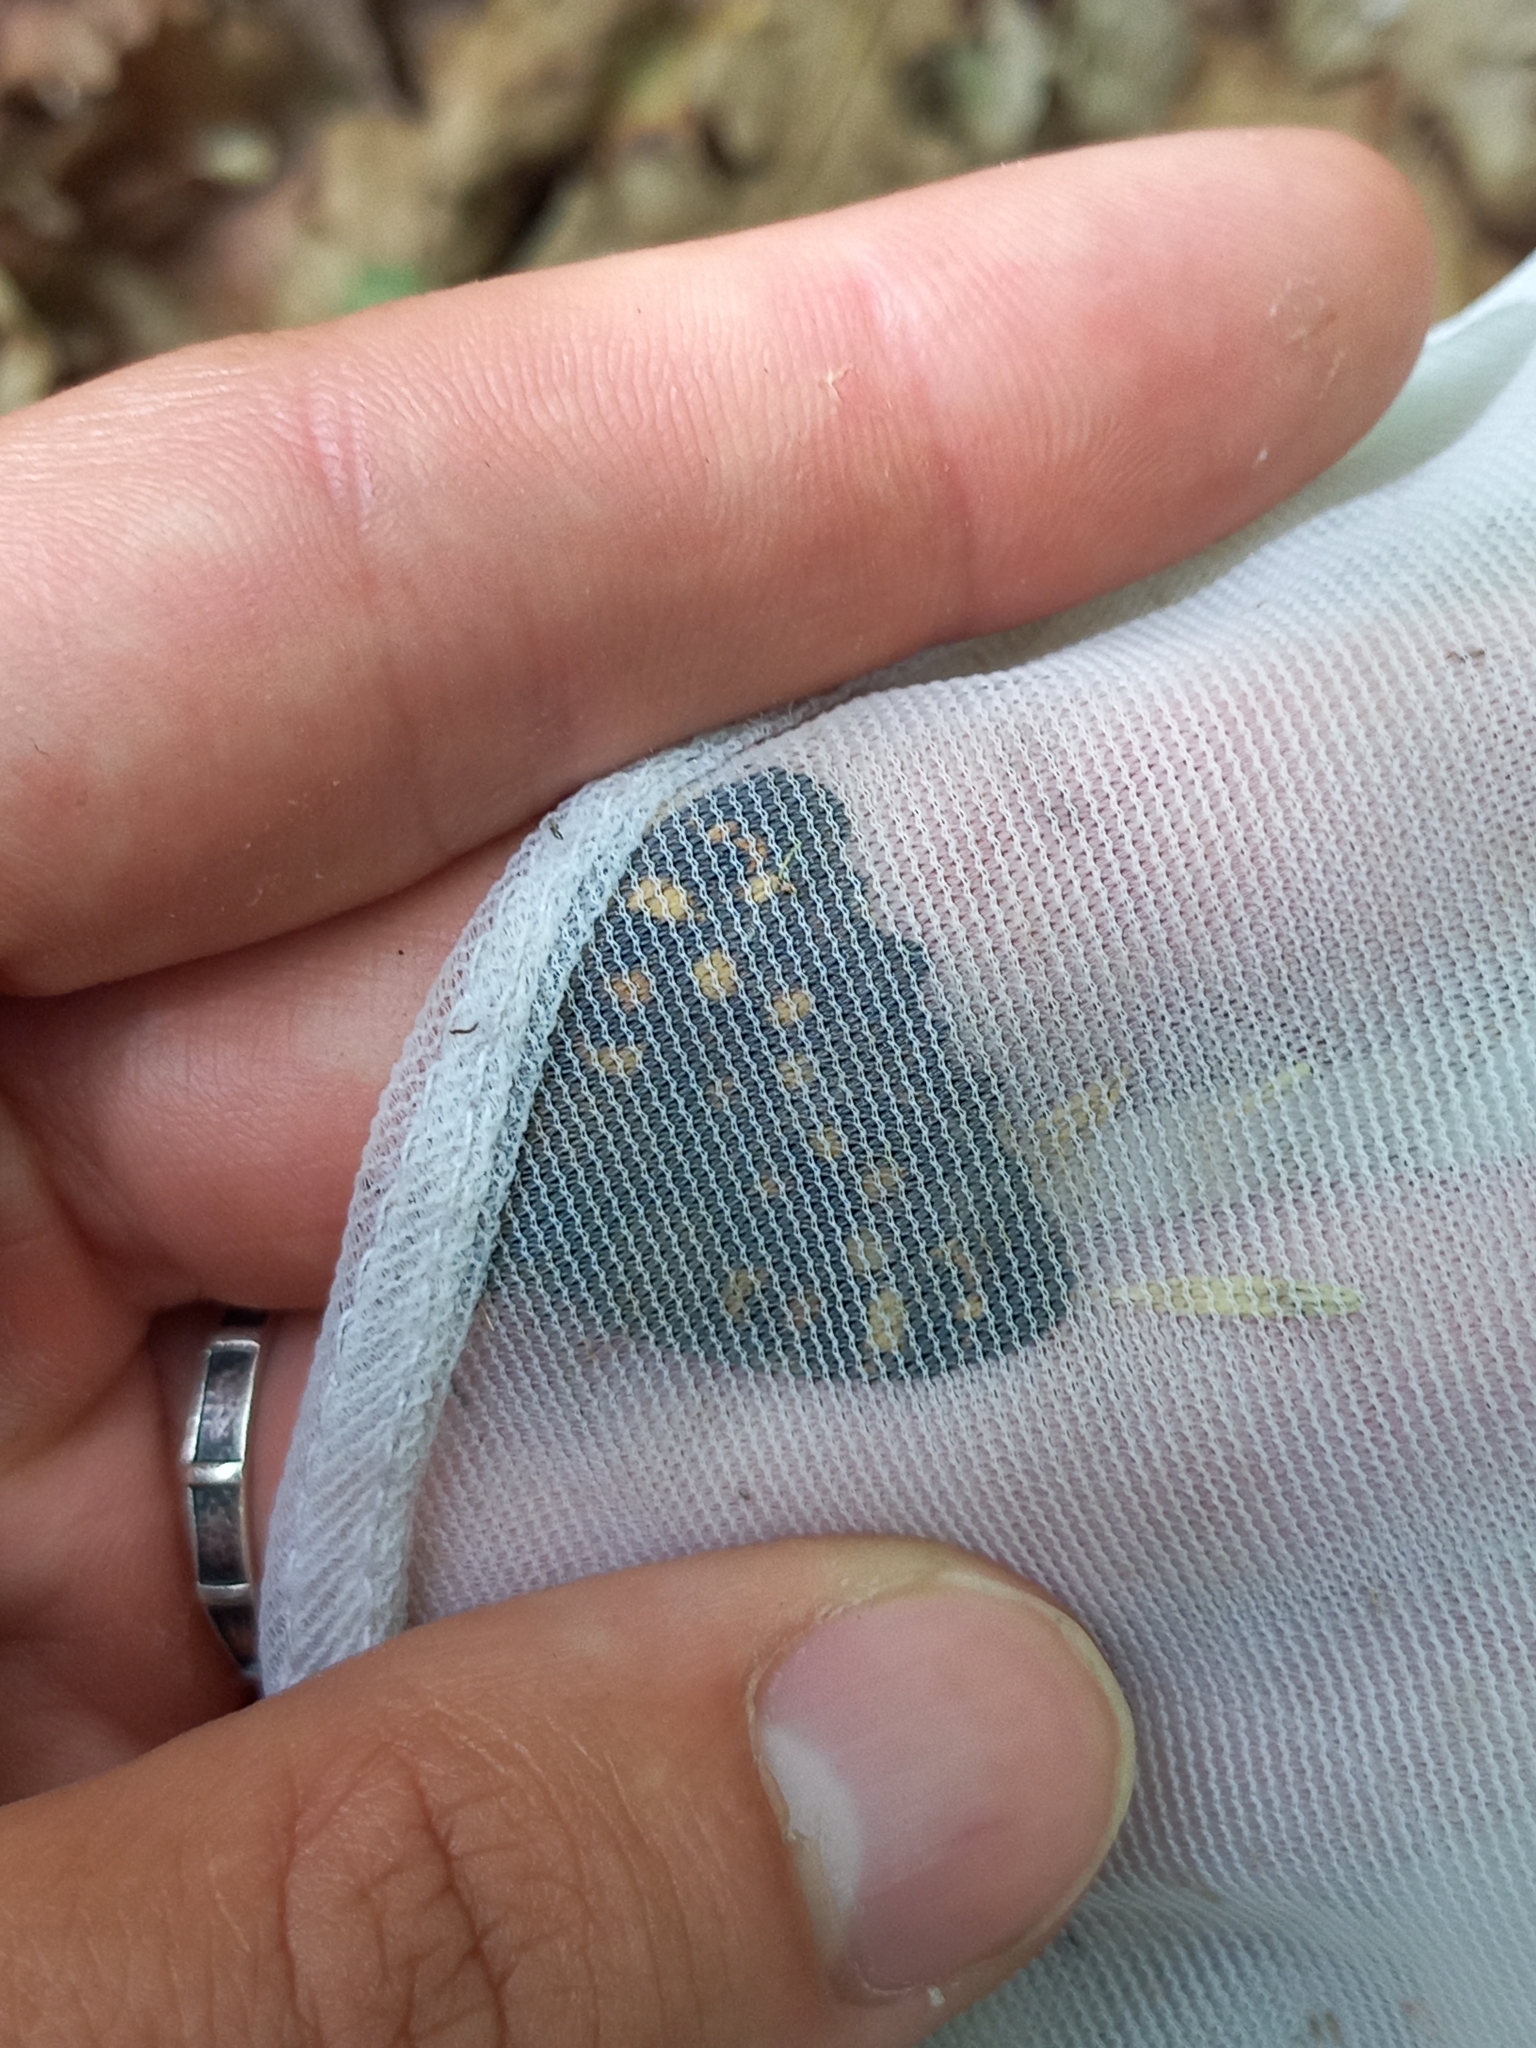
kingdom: Animalia
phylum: Arthropoda
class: Insecta
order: Lepidoptera
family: Nymphalidae
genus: Pararge
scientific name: Pararge aegeria
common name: Speckled wood
